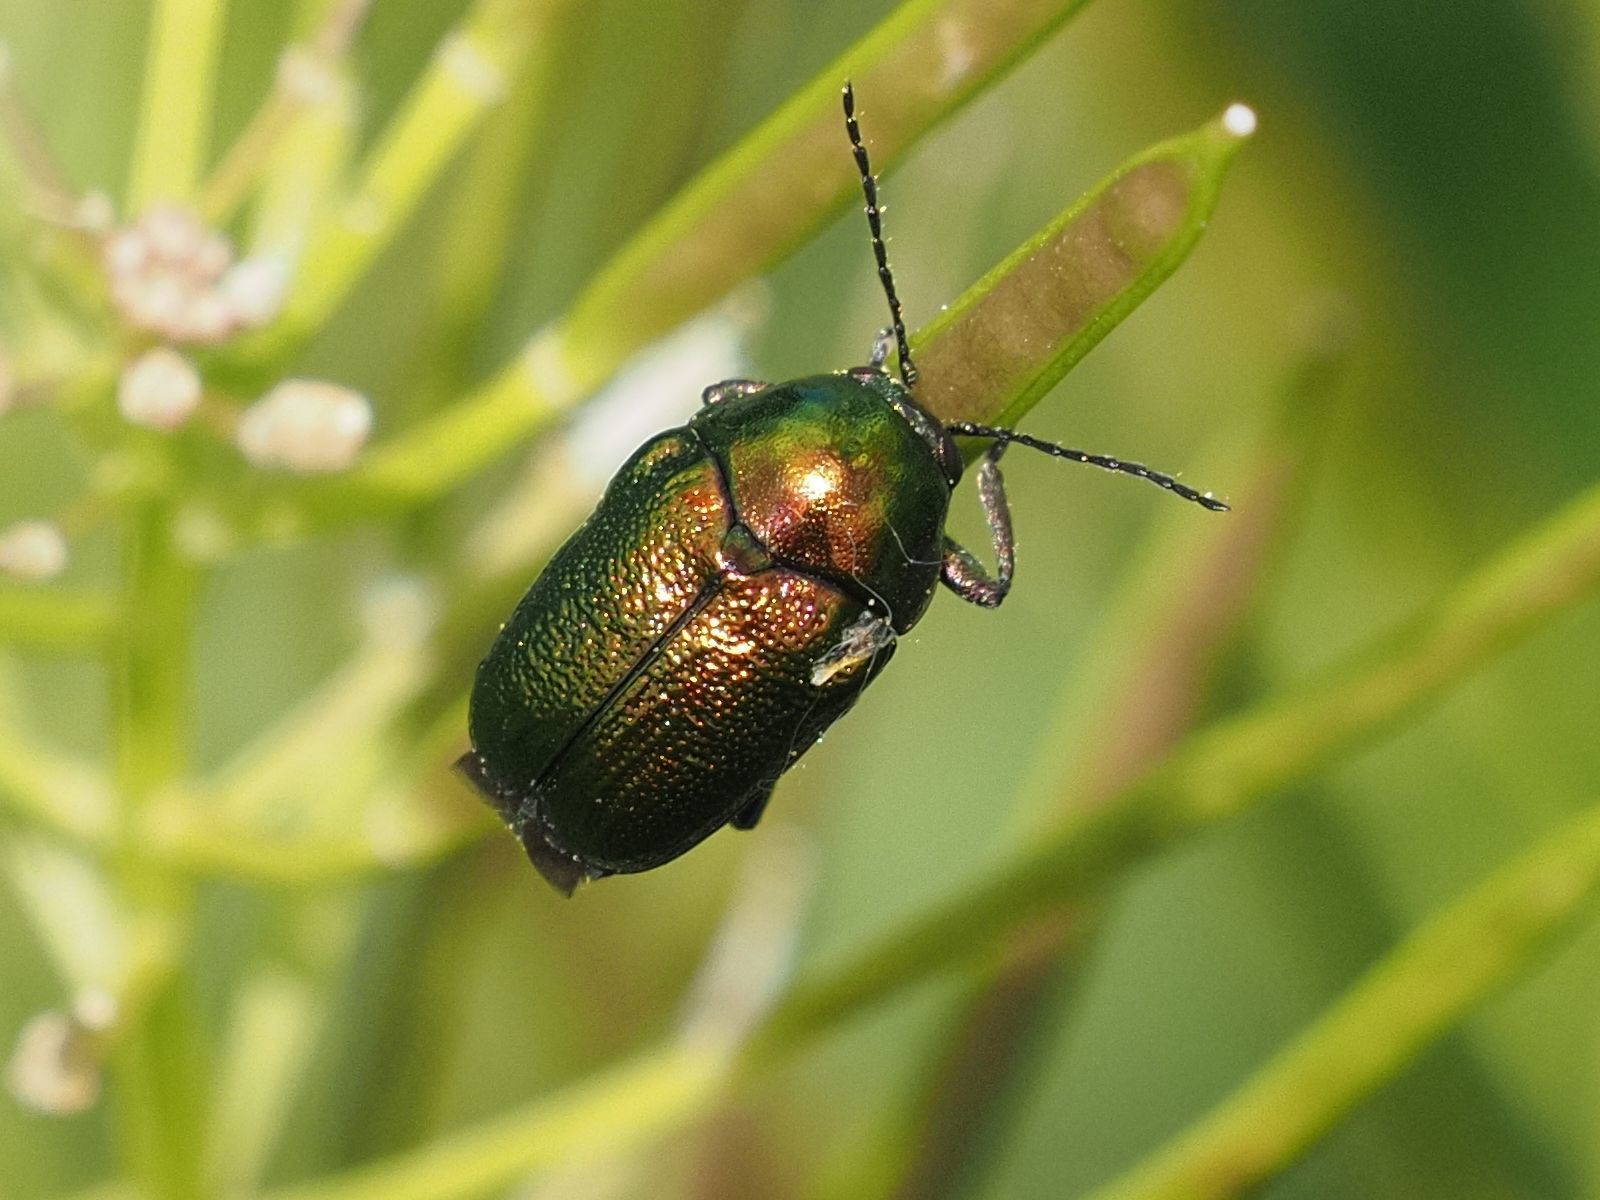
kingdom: Animalia
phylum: Arthropoda
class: Insecta
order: Coleoptera
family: Chrysomelidae
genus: Cryptocephalus
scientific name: Cryptocephalus
